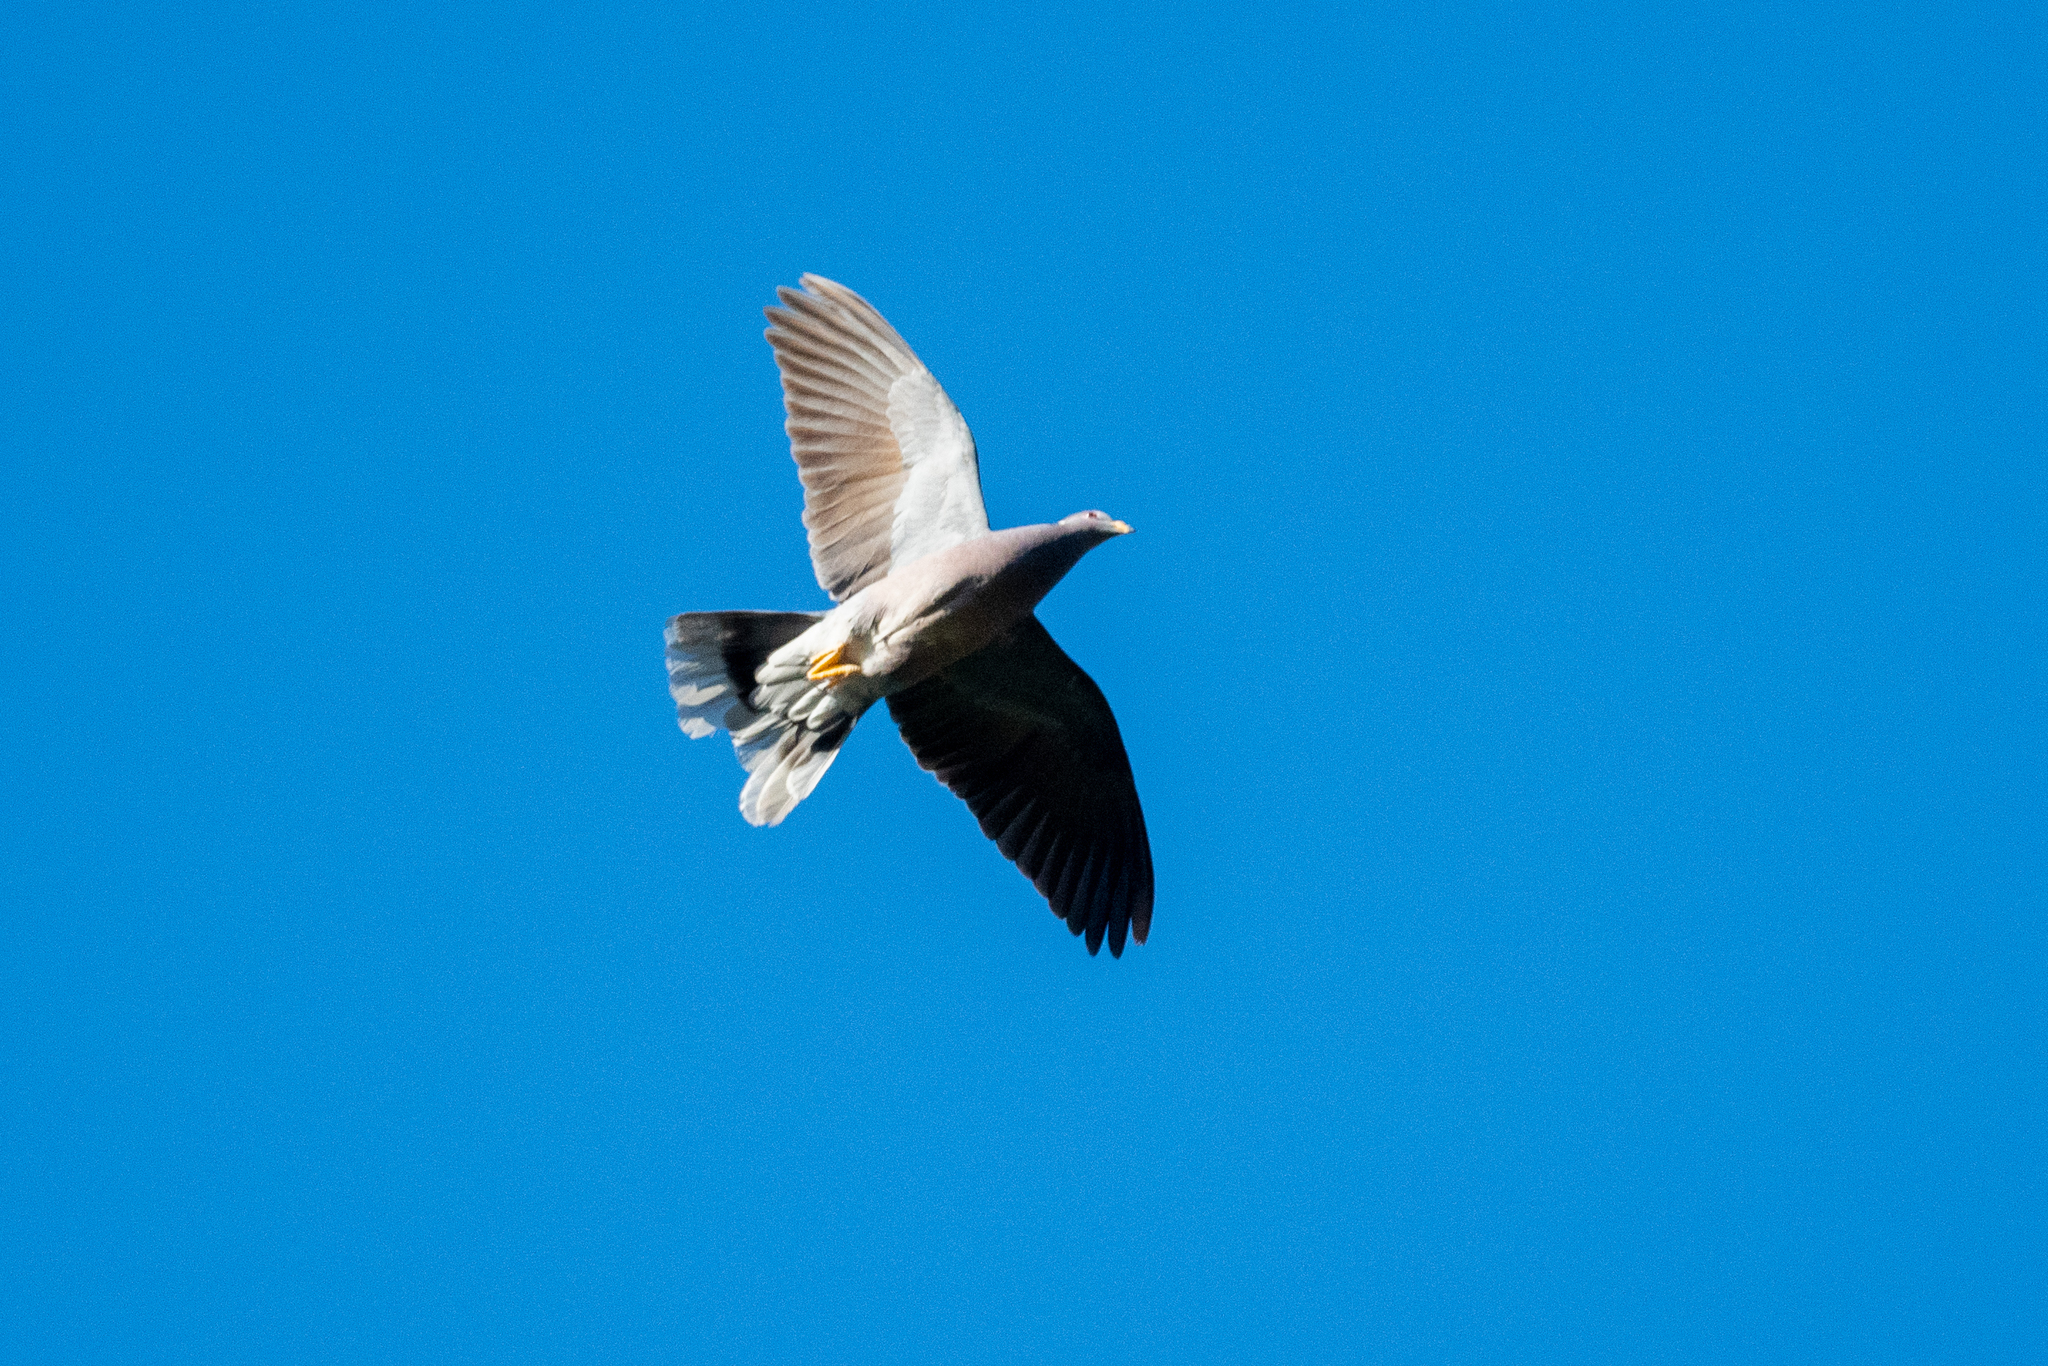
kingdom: Animalia
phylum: Chordata
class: Aves
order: Columbiformes
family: Columbidae
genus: Patagioenas
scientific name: Patagioenas fasciata
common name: Band-tailed pigeon
